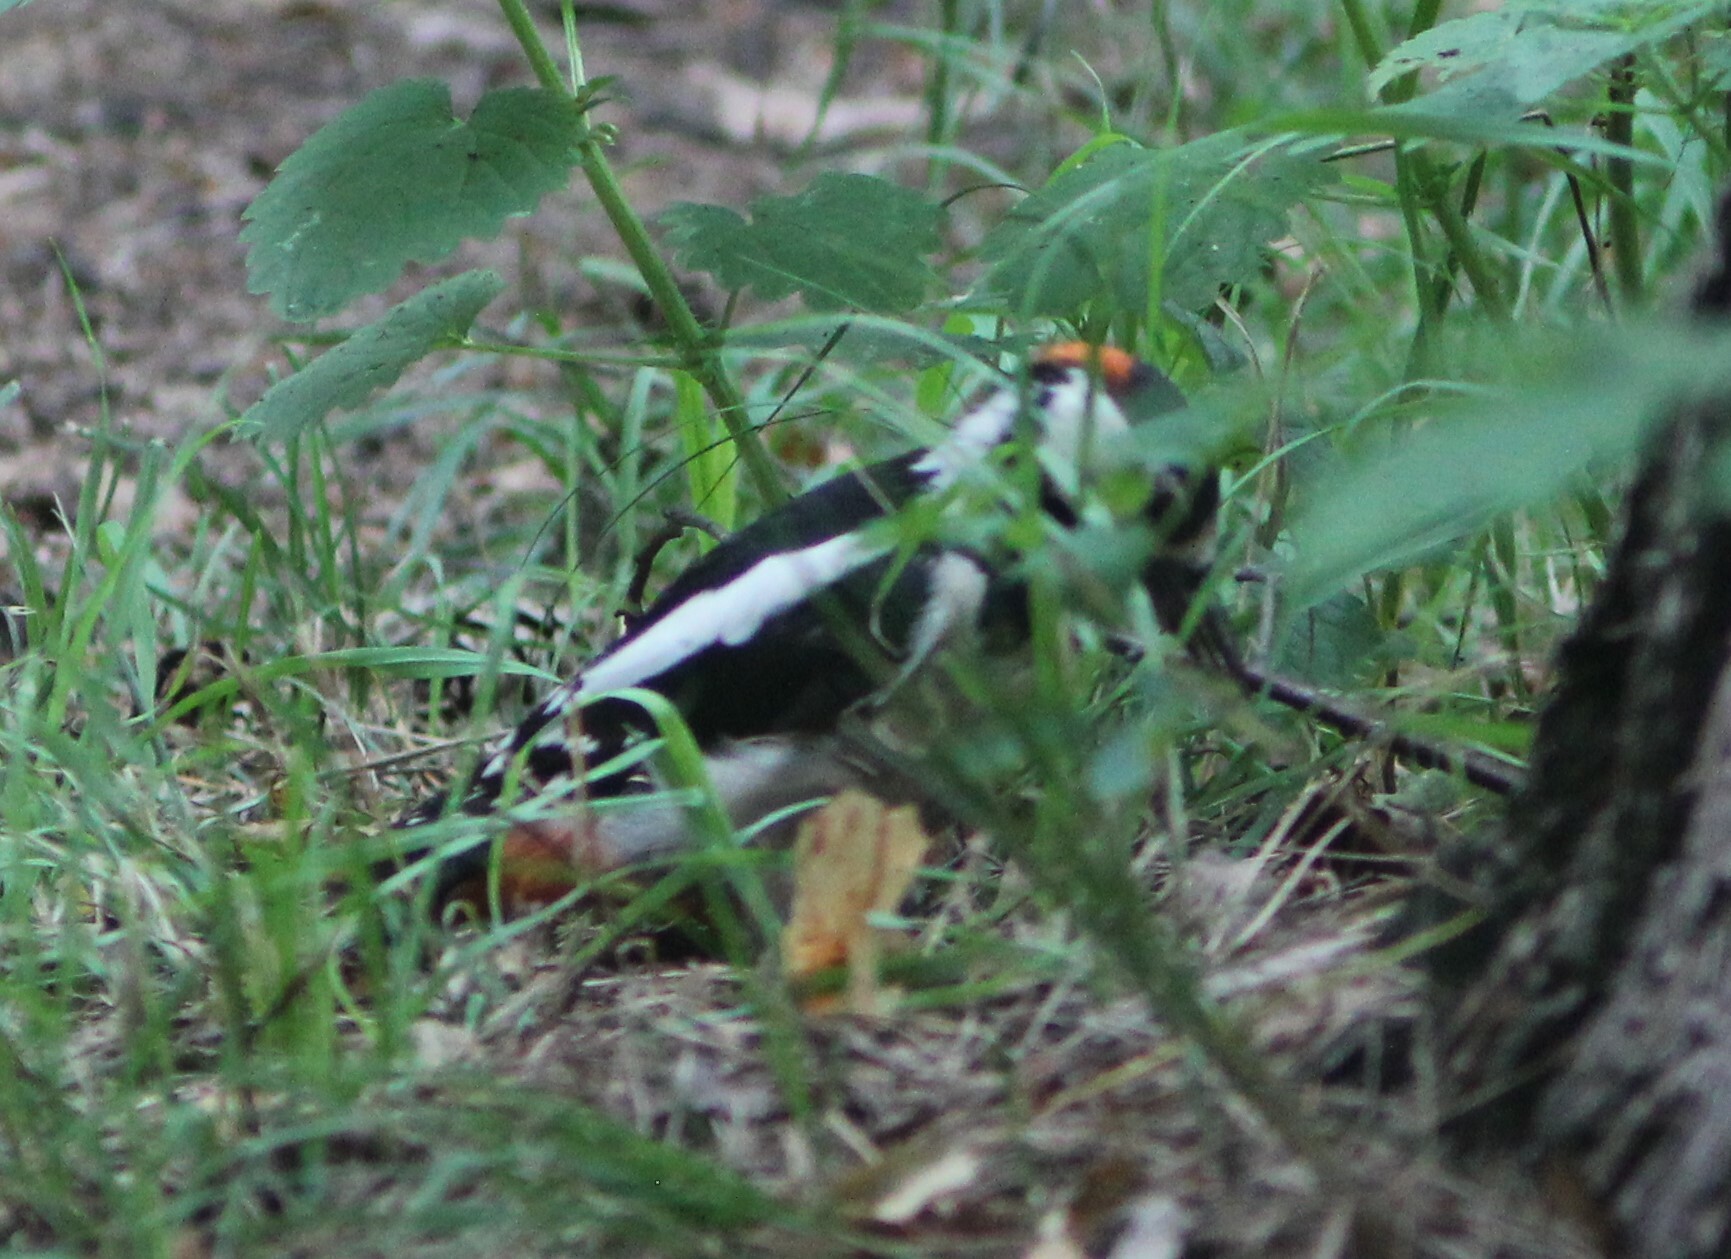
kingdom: Animalia
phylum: Chordata
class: Aves
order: Piciformes
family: Picidae
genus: Dendrocopos
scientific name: Dendrocopos major
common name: Great spotted woodpecker
